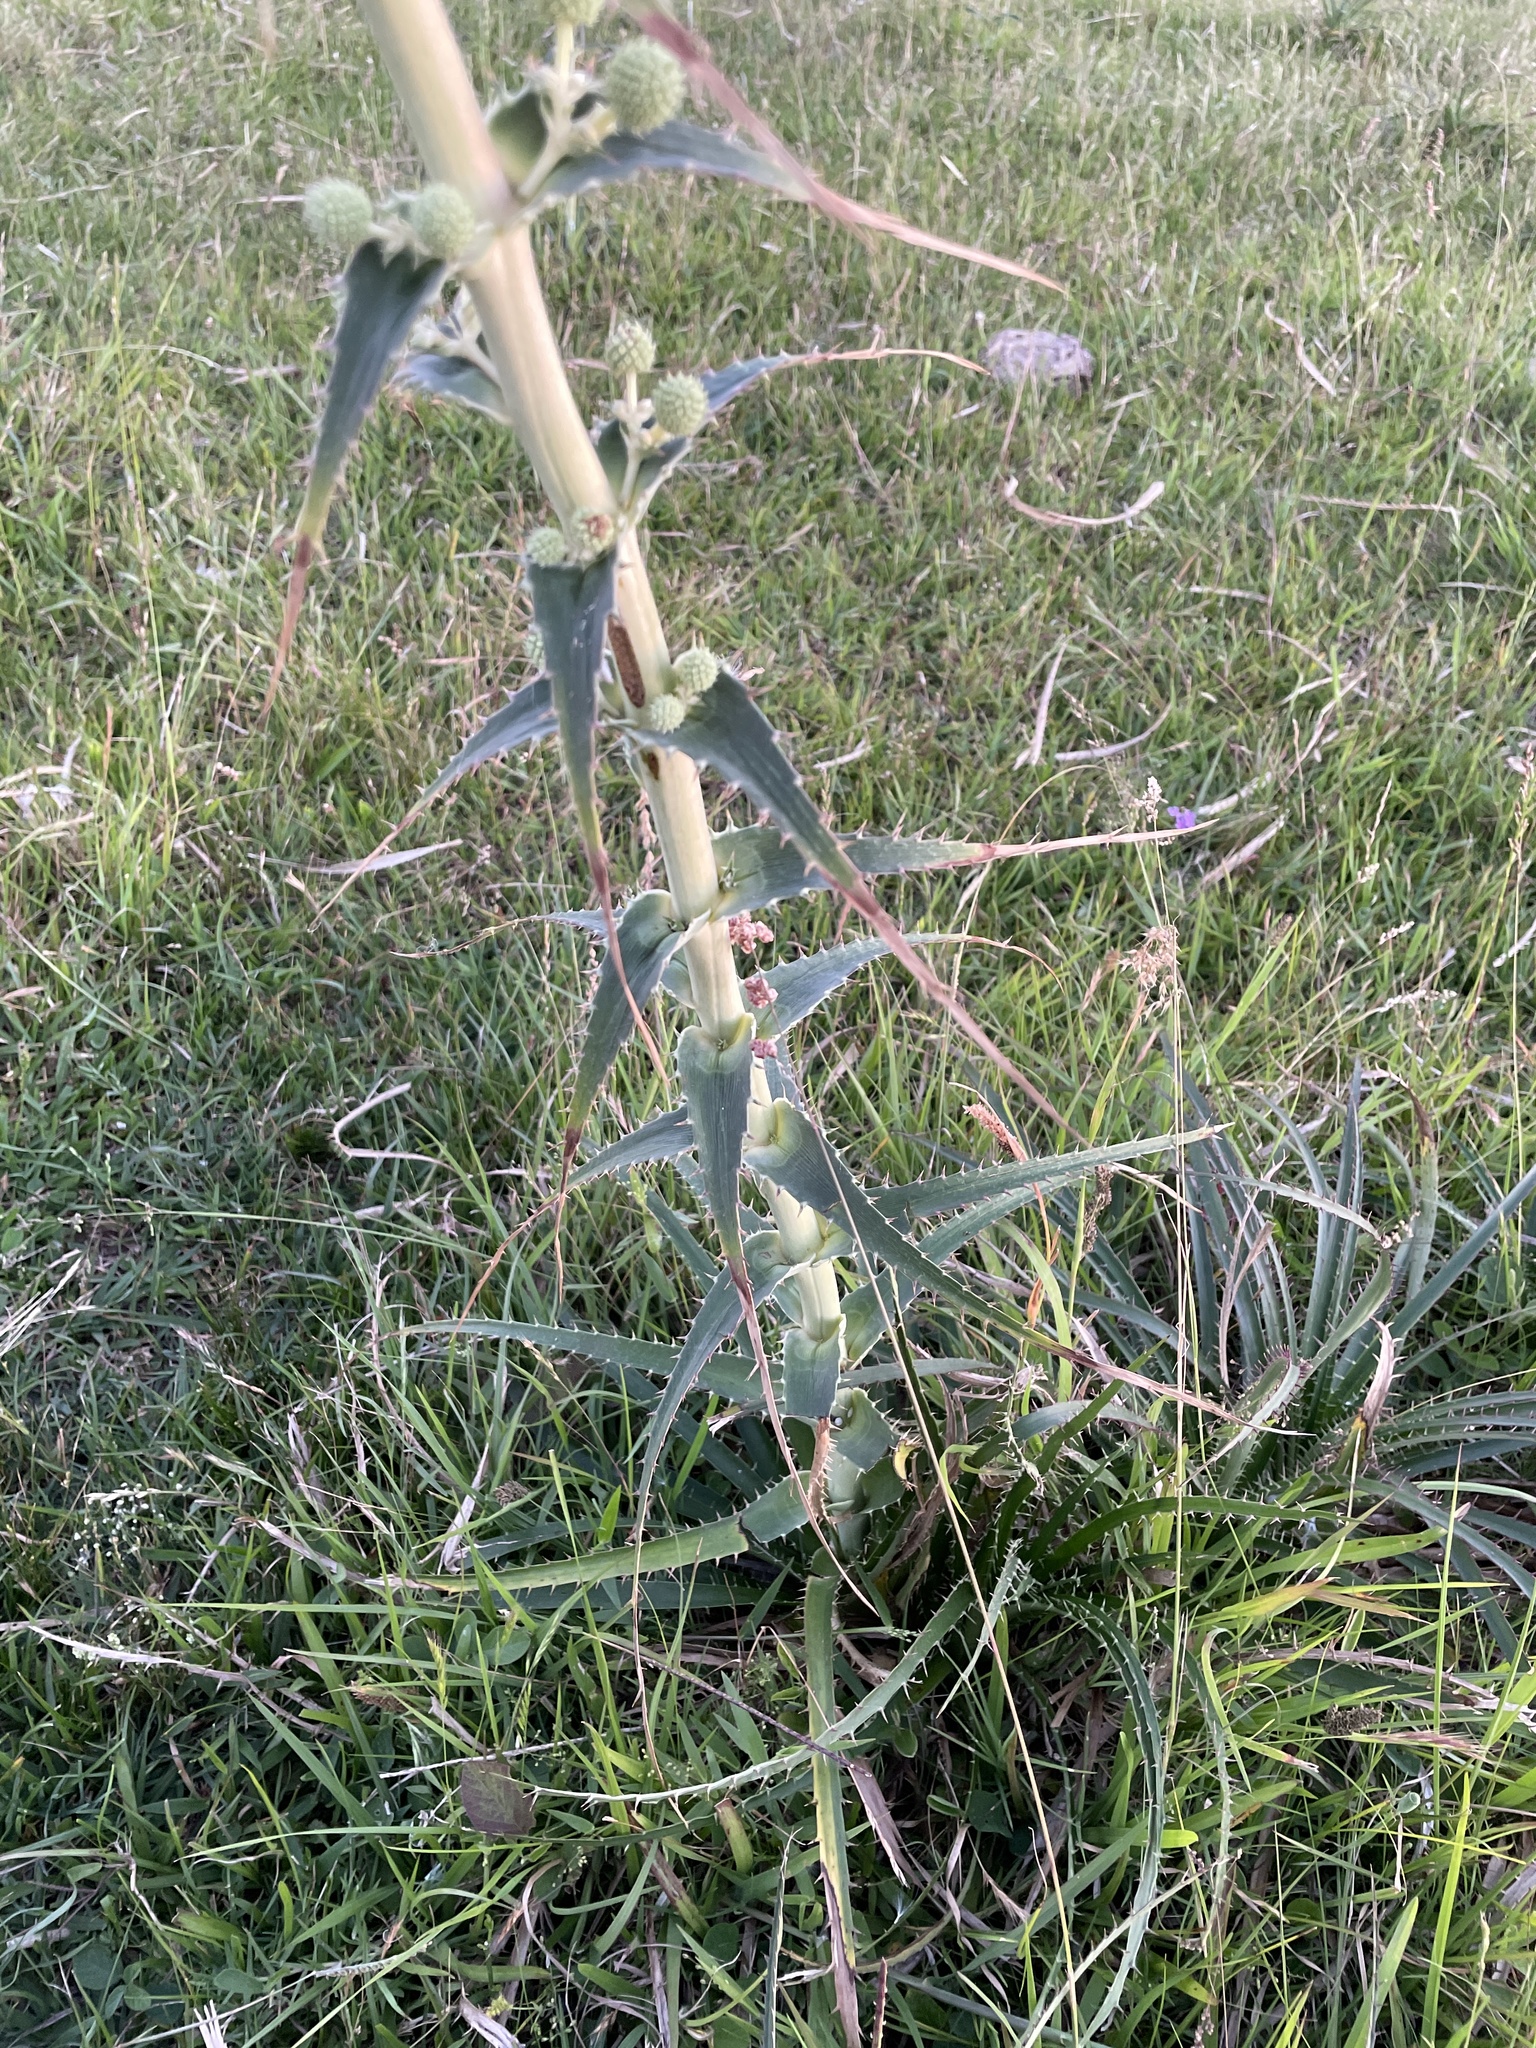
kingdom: Plantae
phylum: Tracheophyta
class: Magnoliopsida
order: Apiales
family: Apiaceae
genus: Eryngium
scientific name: Eryngium horridum
